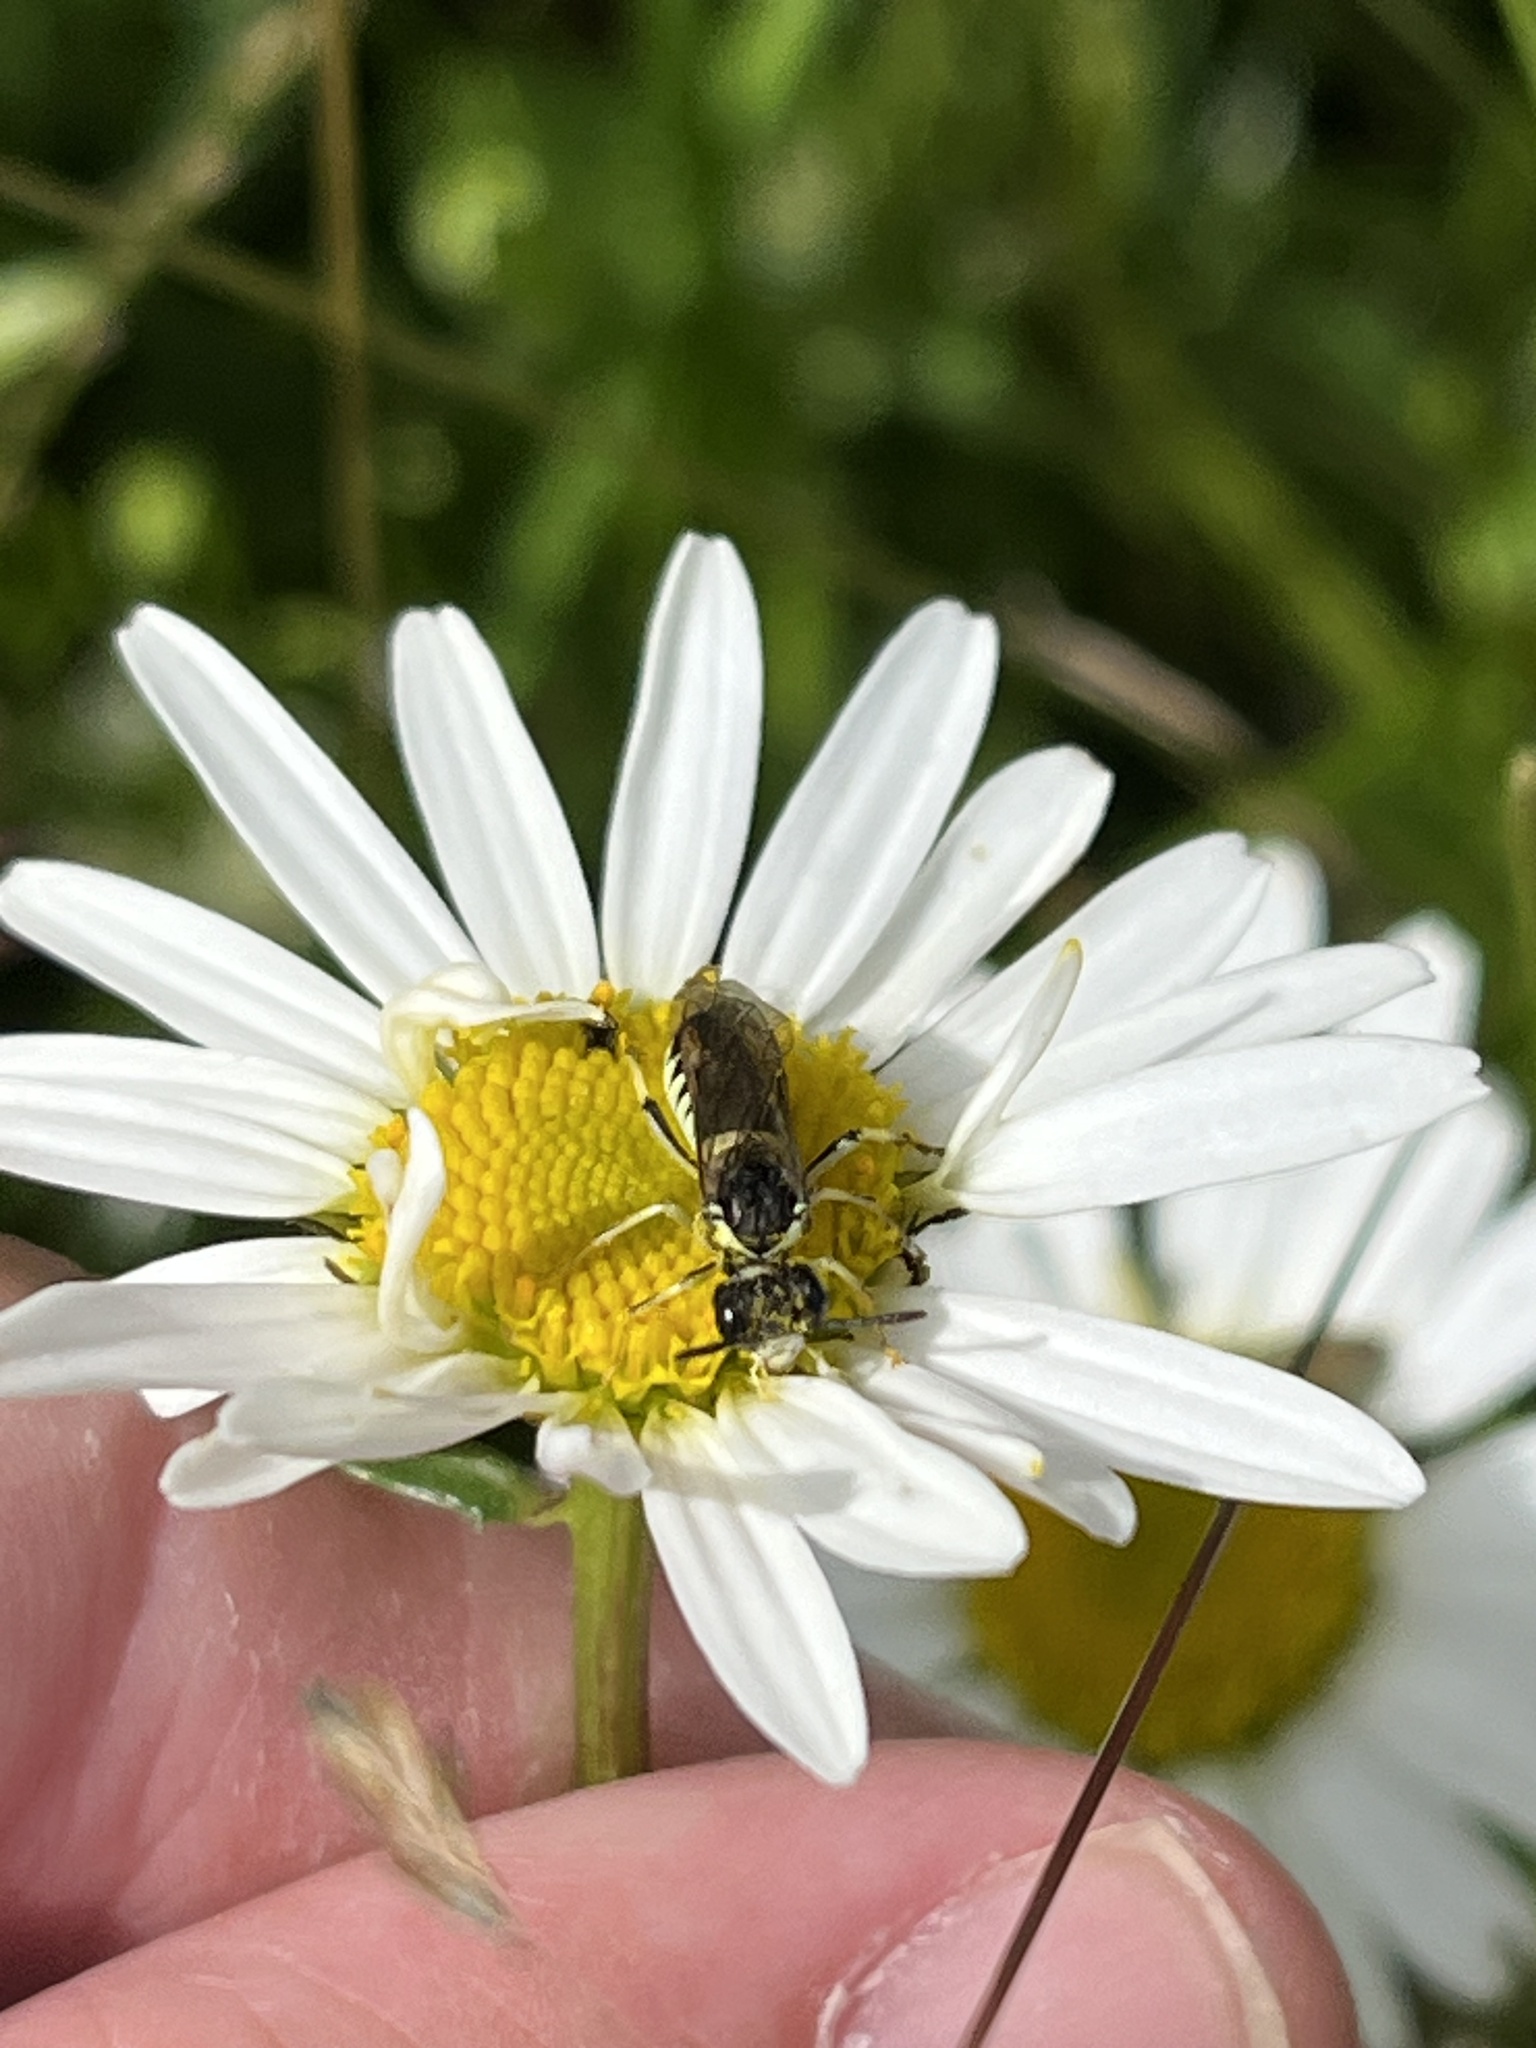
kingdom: Animalia
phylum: Arthropoda
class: Insecta
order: Hymenoptera
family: Tenthredinidae
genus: Tenthredo
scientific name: Tenthredo notha
